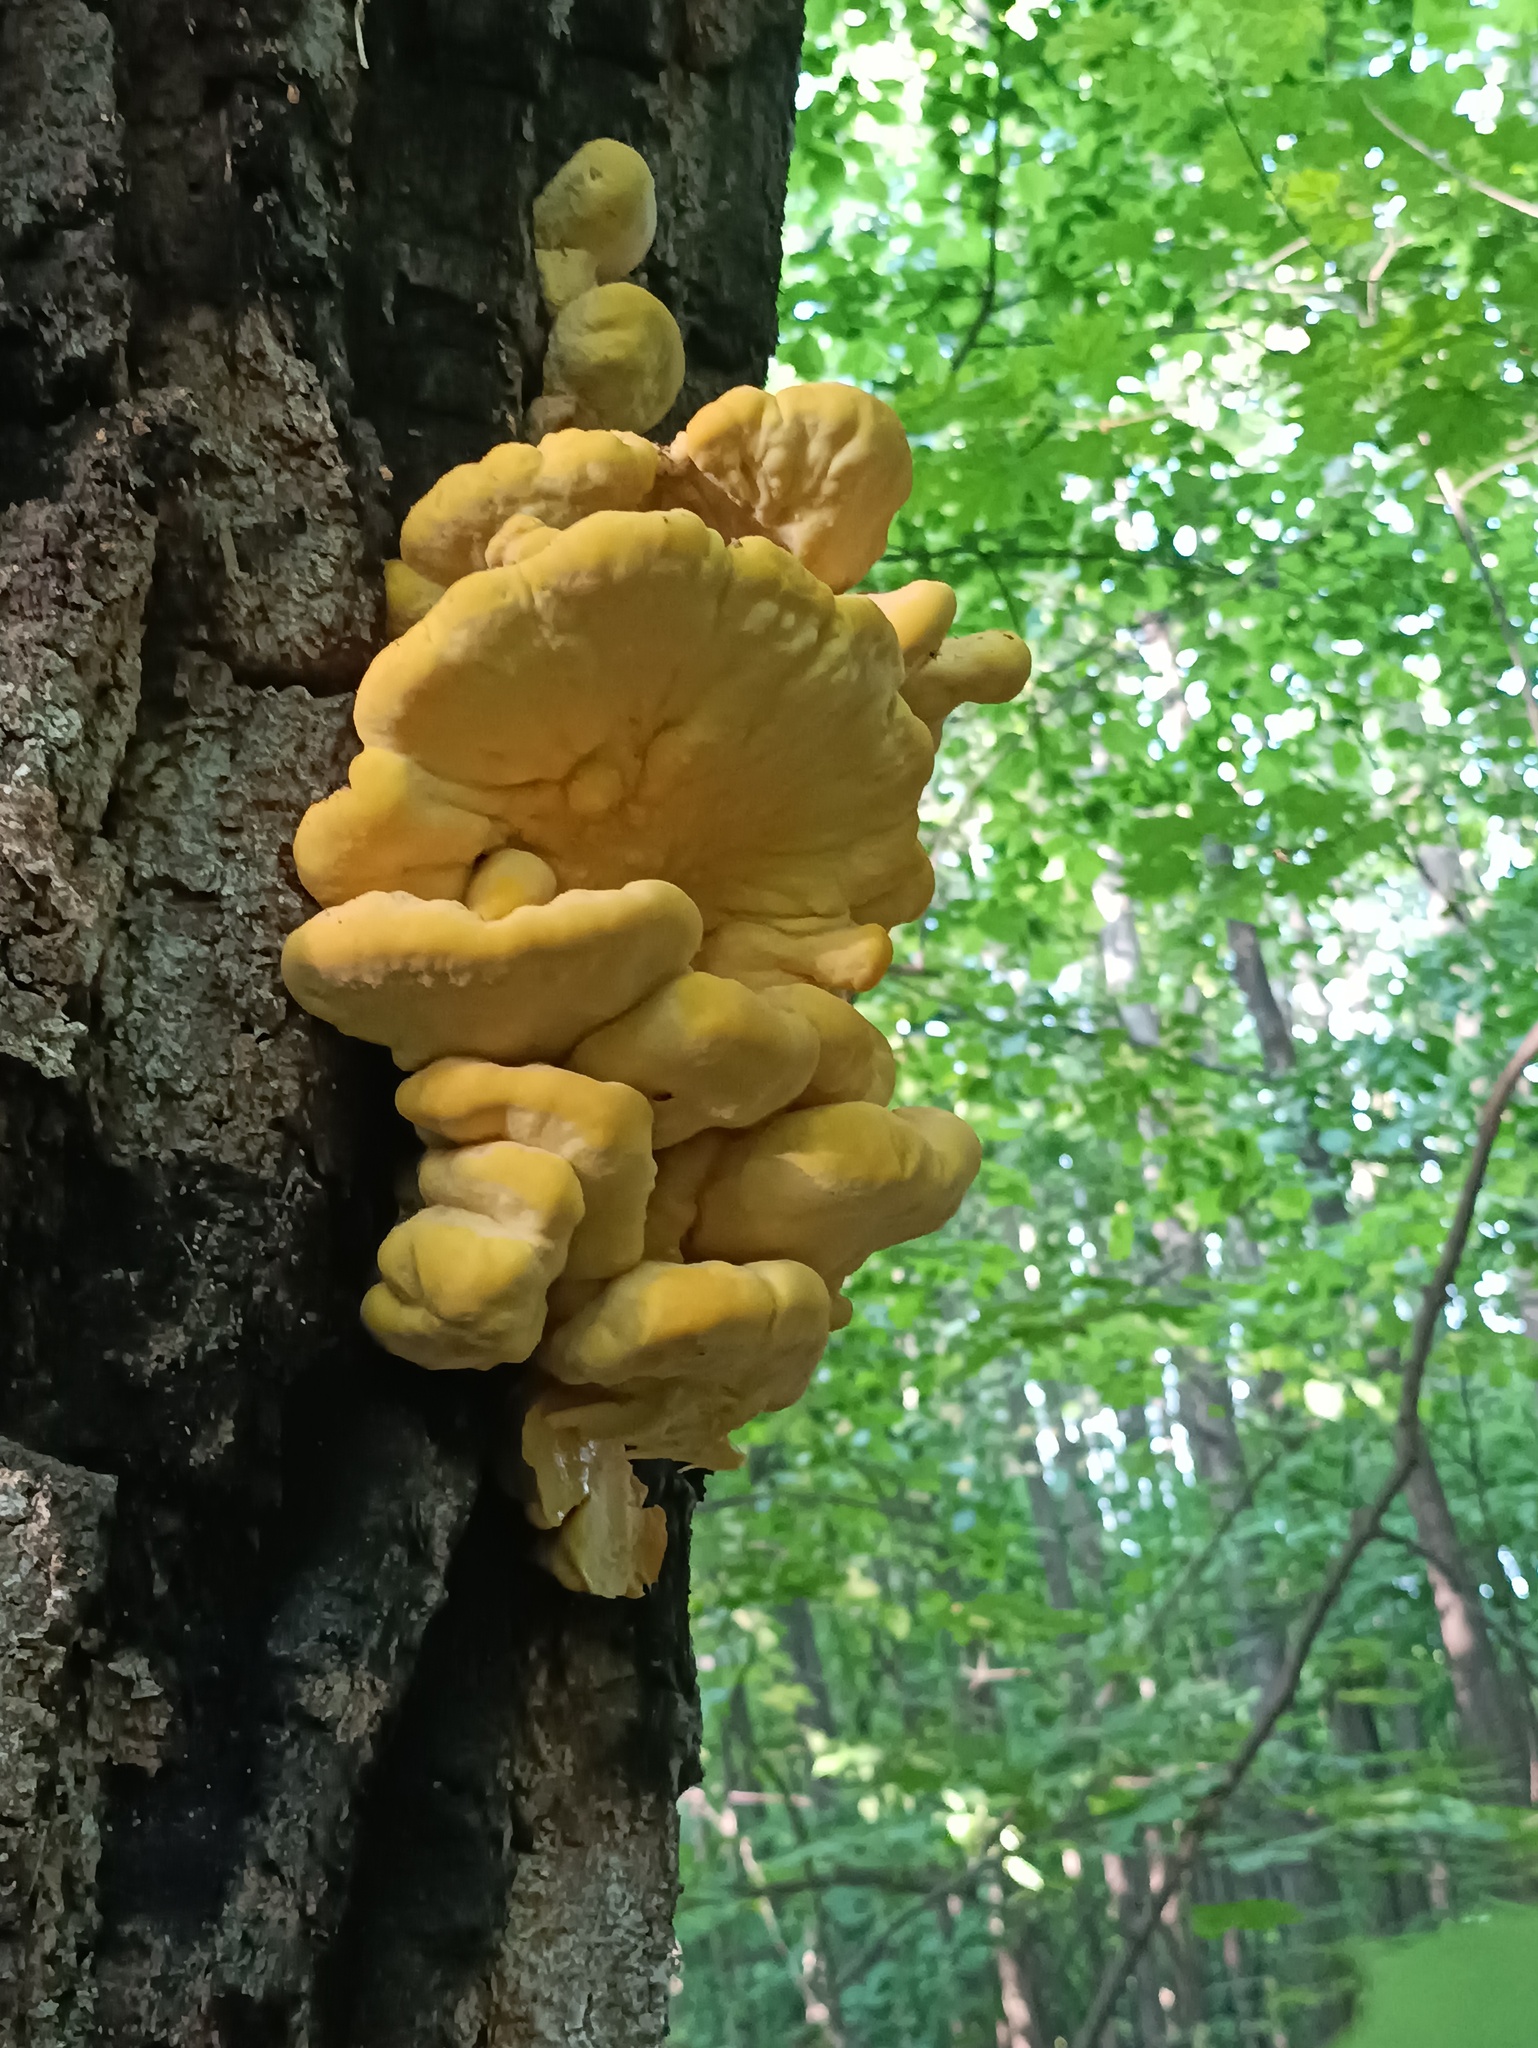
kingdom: Fungi
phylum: Basidiomycota
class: Agaricomycetes
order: Polyporales
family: Laetiporaceae
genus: Laetiporus
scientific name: Laetiporus sulphureus
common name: Chicken of the woods
